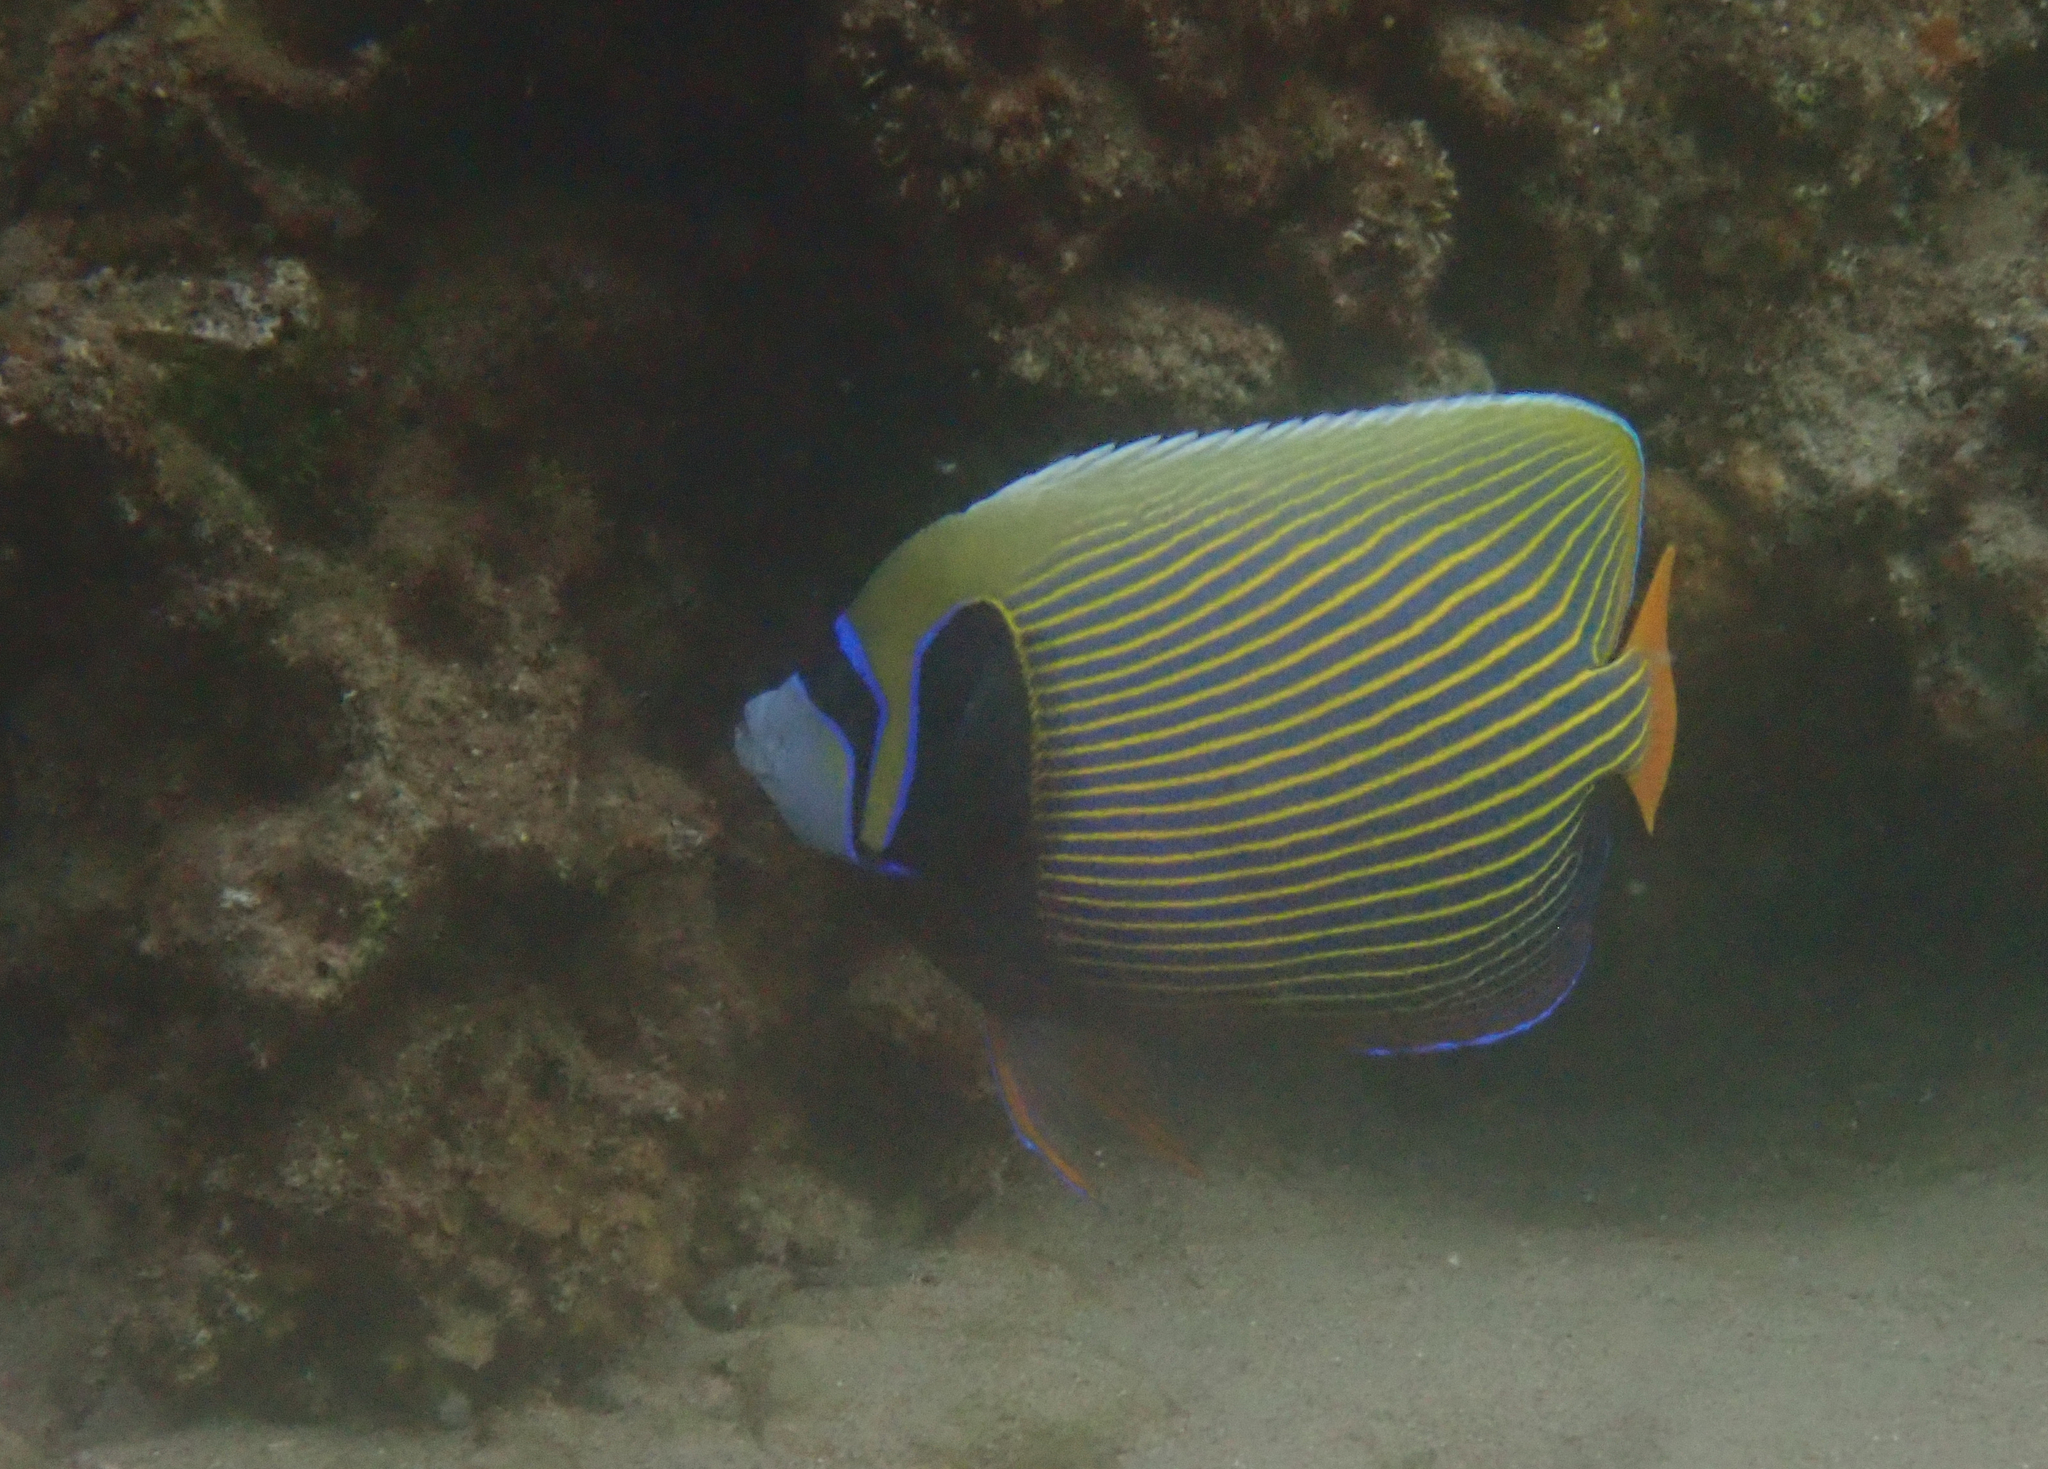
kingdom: Animalia
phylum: Chordata
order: Perciformes
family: Pomacanthidae
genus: Pomacanthus
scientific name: Pomacanthus imperator
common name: Emperor angelfish
